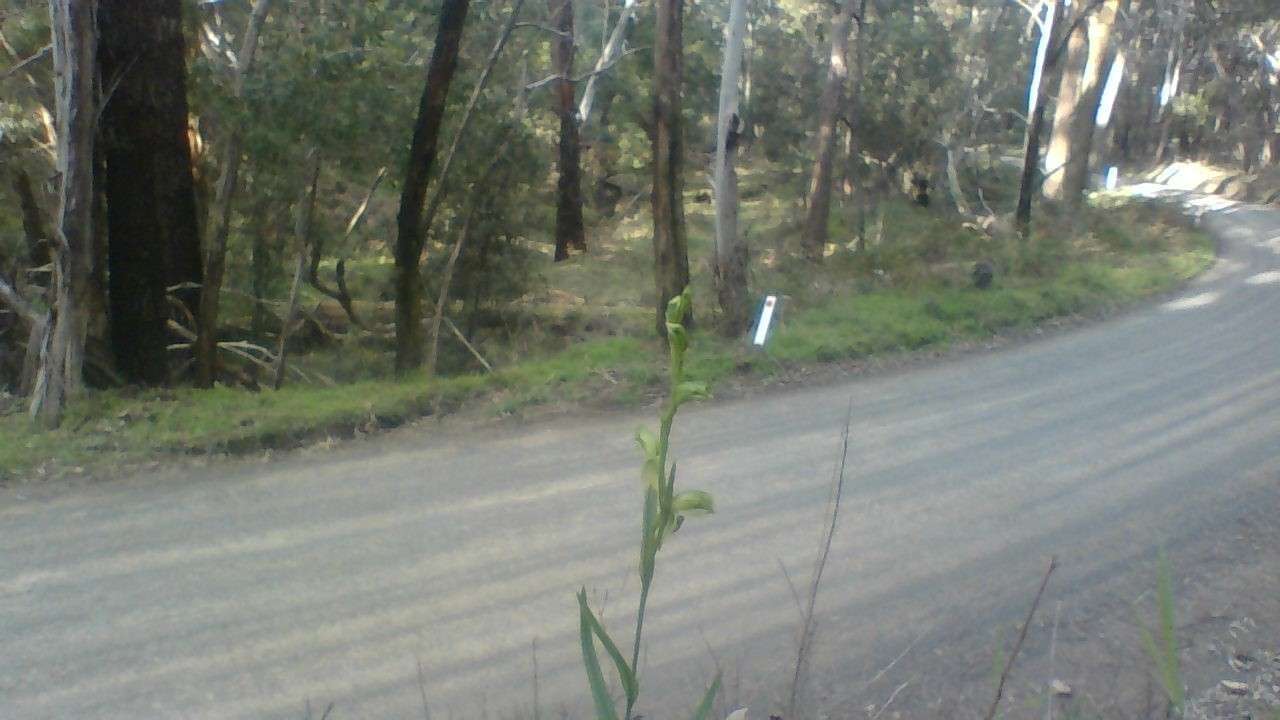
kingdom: Plantae
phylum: Tracheophyta
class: Liliopsida
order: Asparagales
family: Orchidaceae
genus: Pterostylis
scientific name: Pterostylis melagramma
